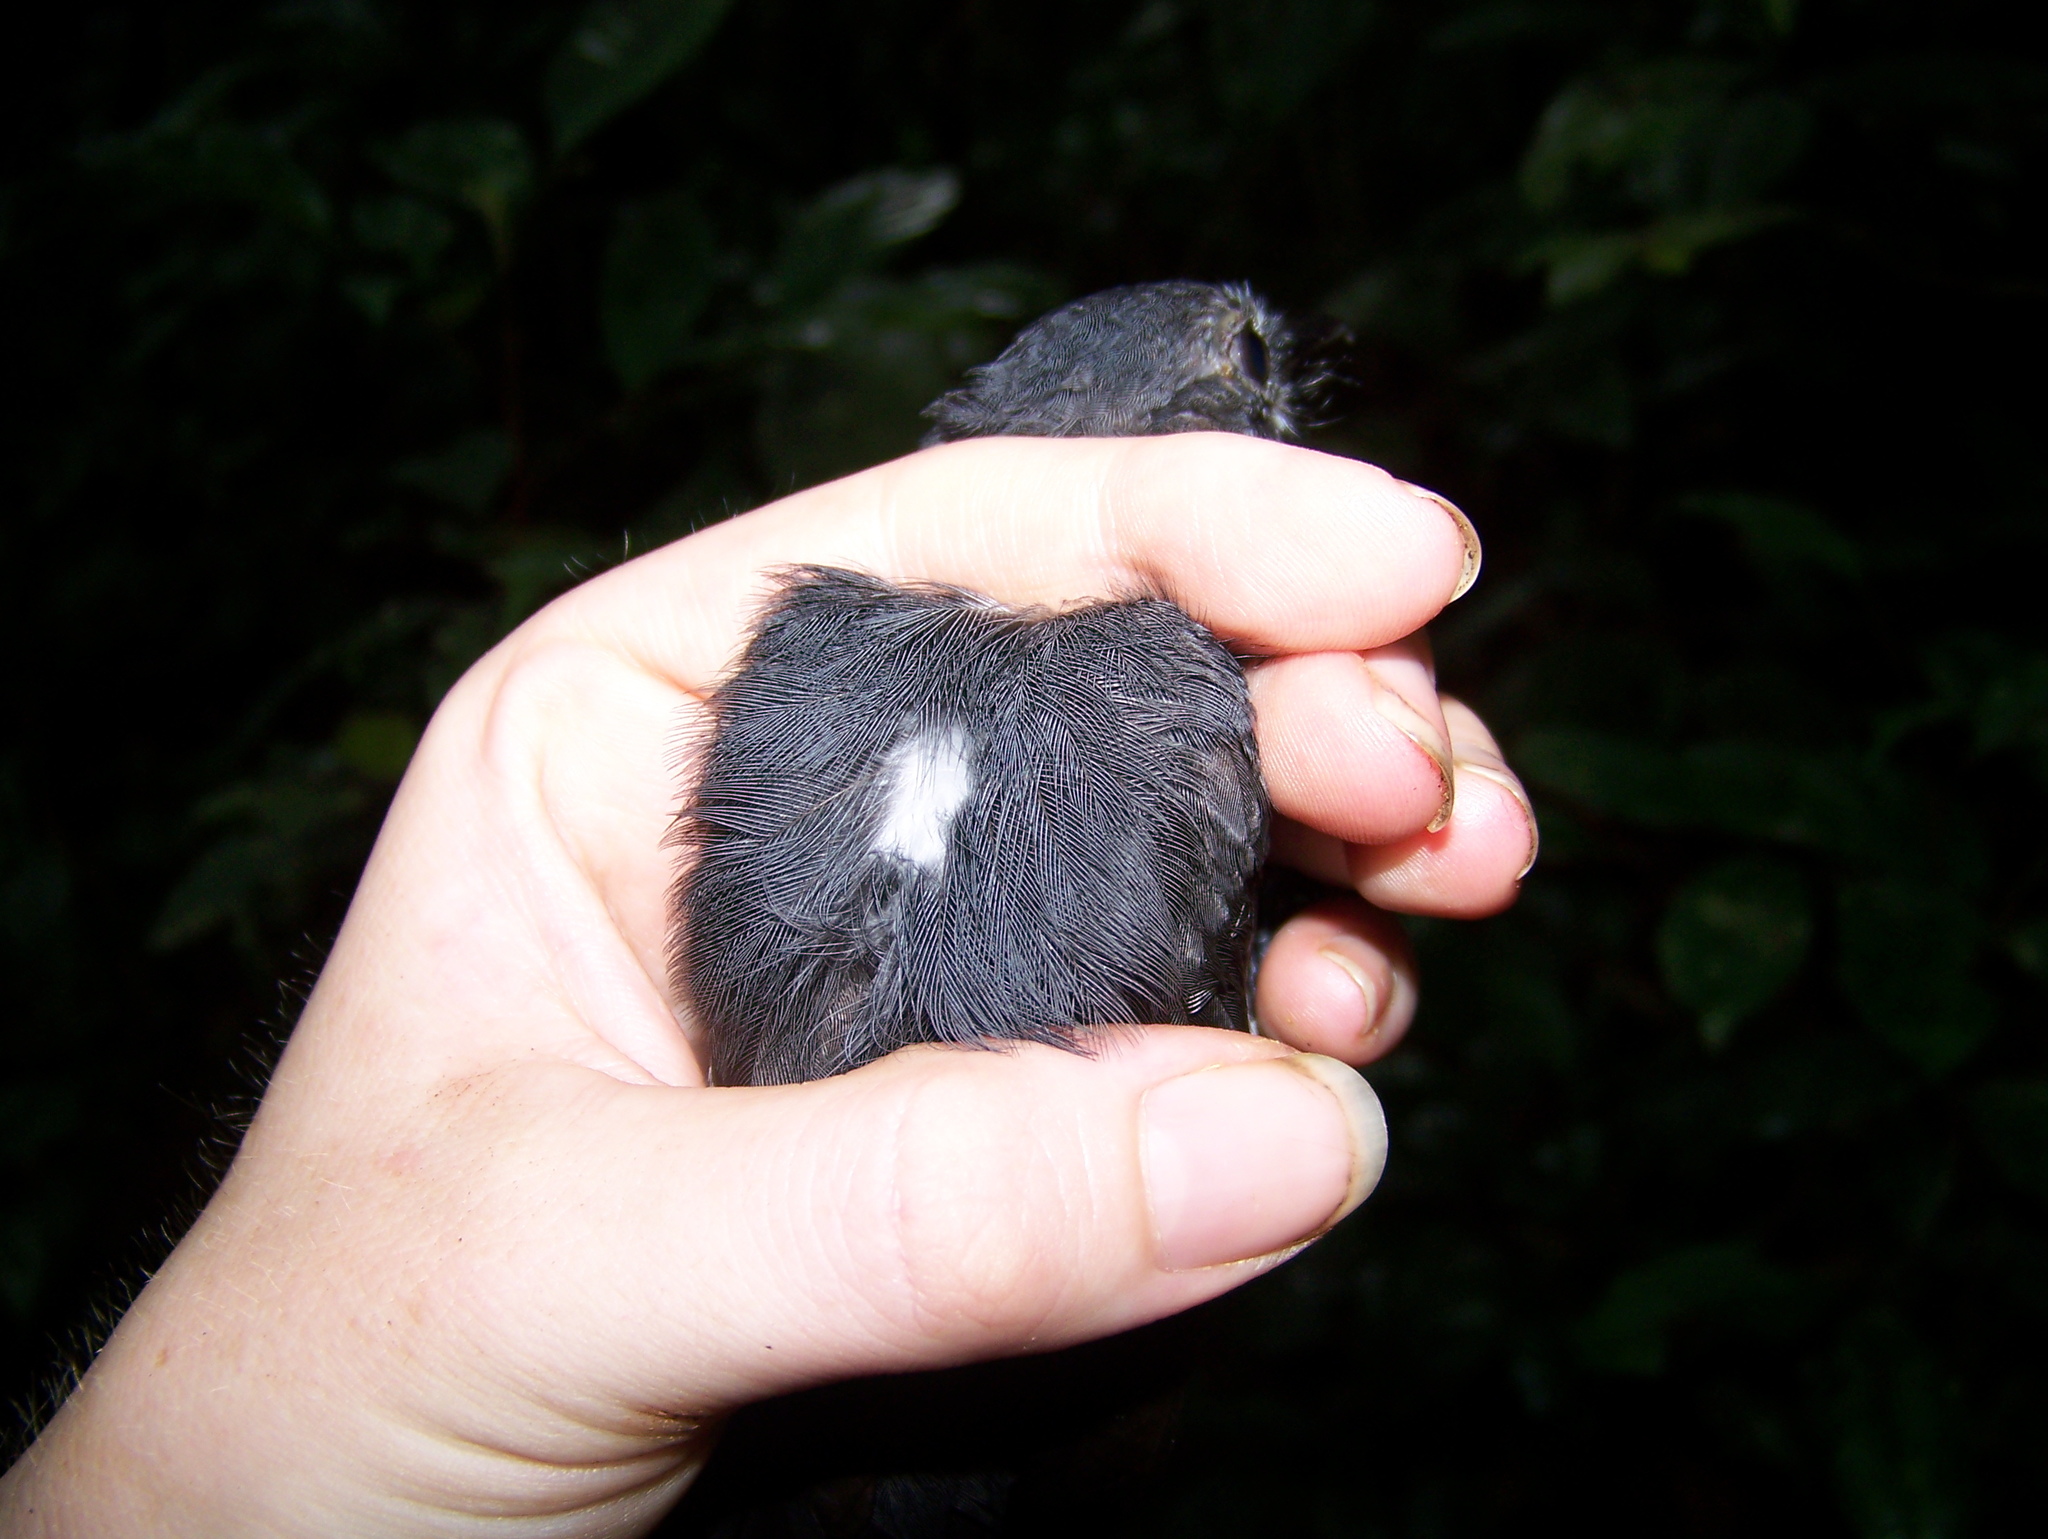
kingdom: Animalia
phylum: Chordata
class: Aves
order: Passeriformes
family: Thamnophilidae
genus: Thamnomanes
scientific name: Thamnomanes caesius
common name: Cinereous antshrike
